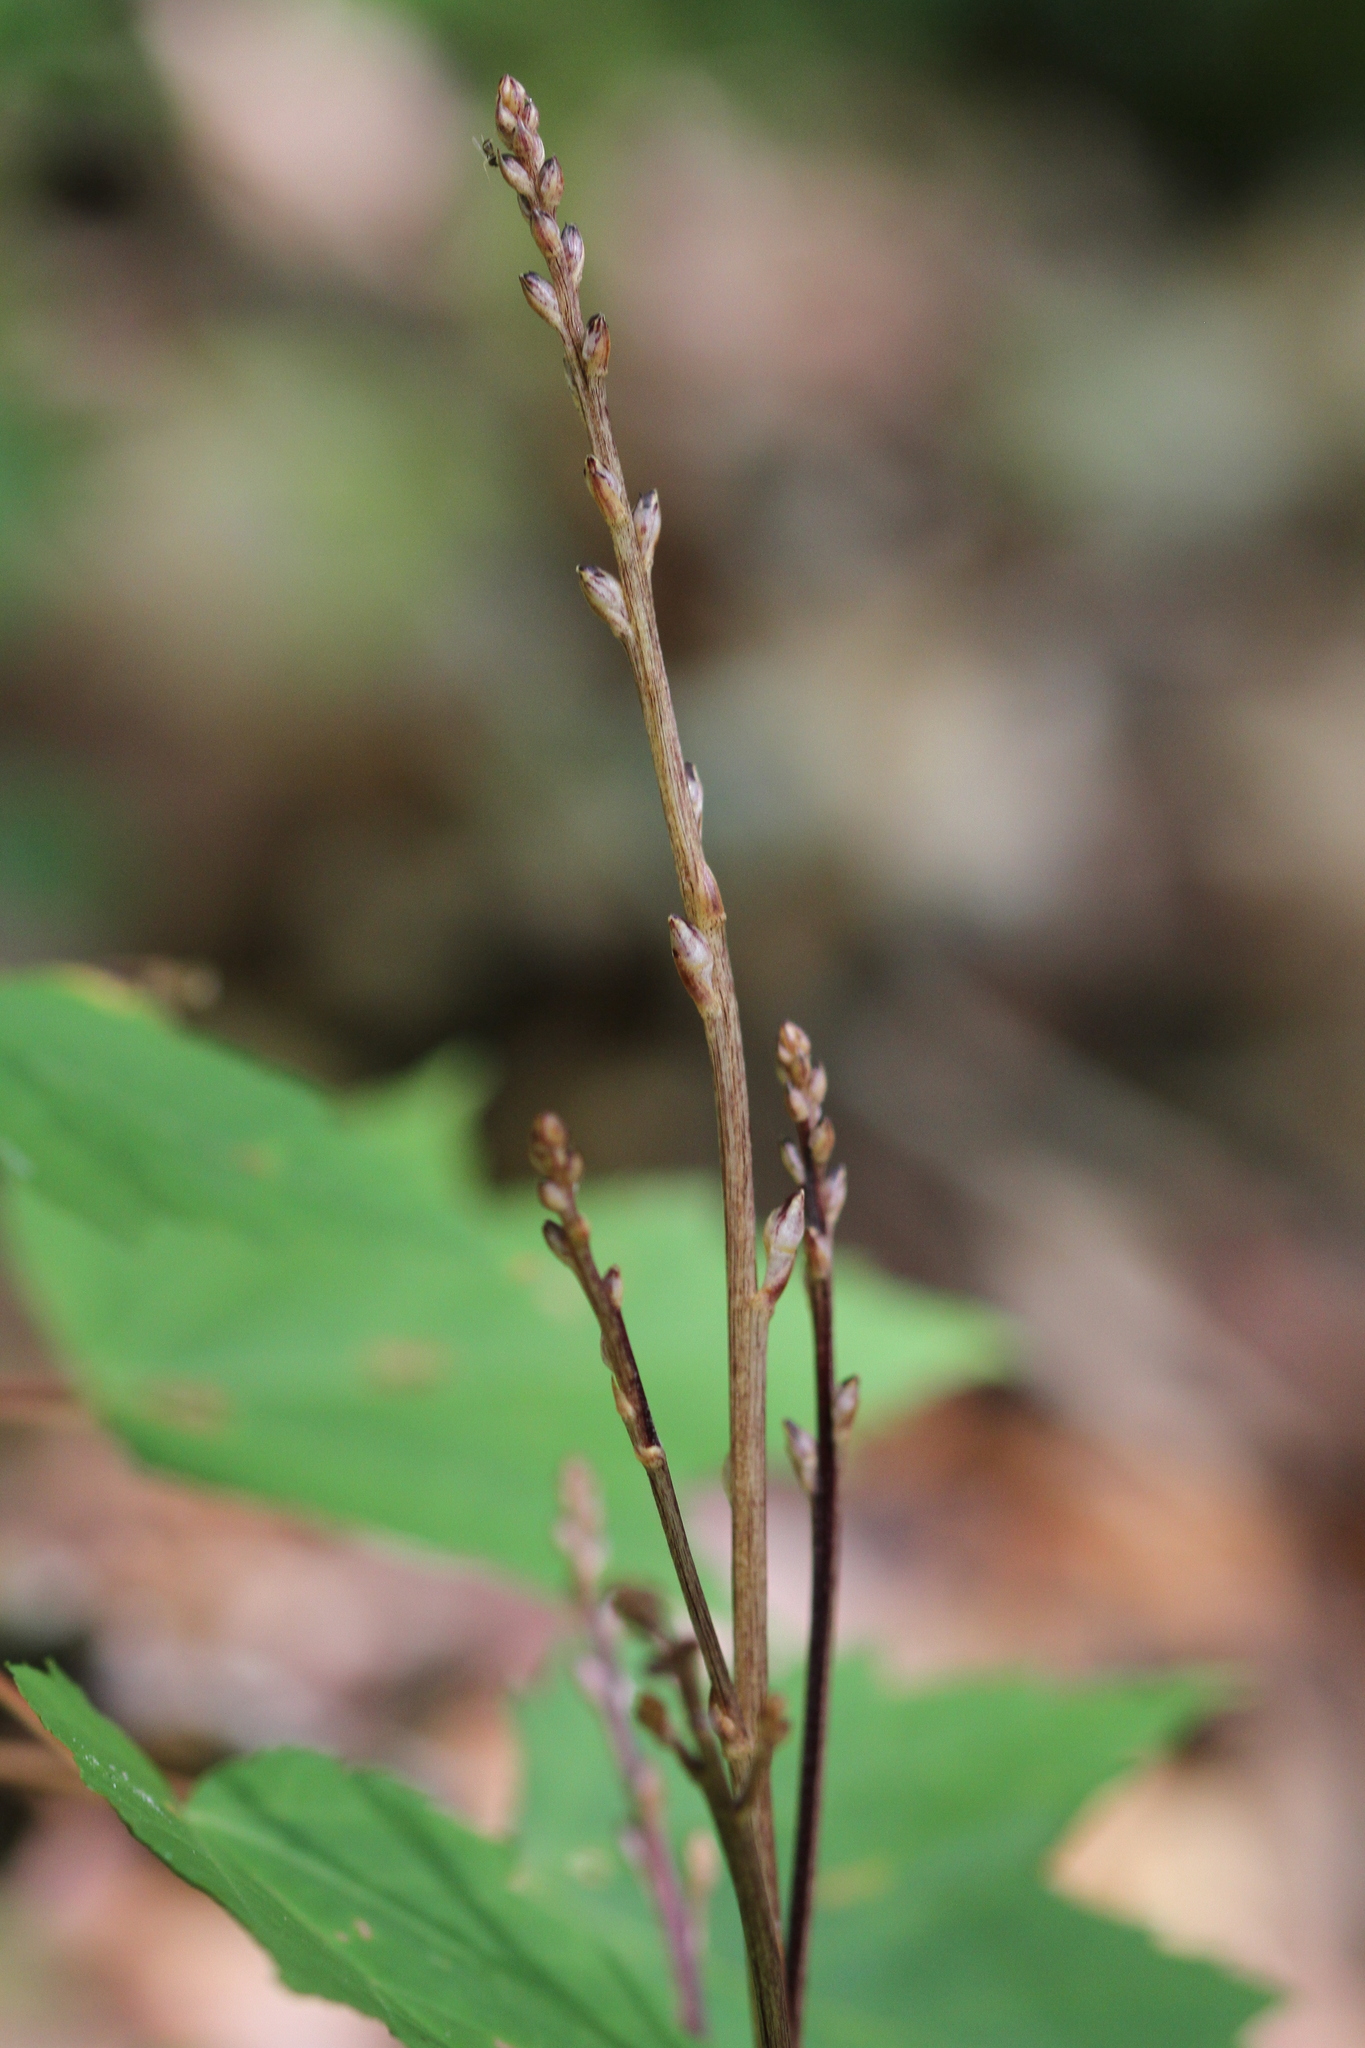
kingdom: Plantae
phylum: Tracheophyta
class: Magnoliopsida
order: Lamiales
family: Orobanchaceae
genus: Epifagus
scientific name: Epifagus virginiana
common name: Beechdrops
